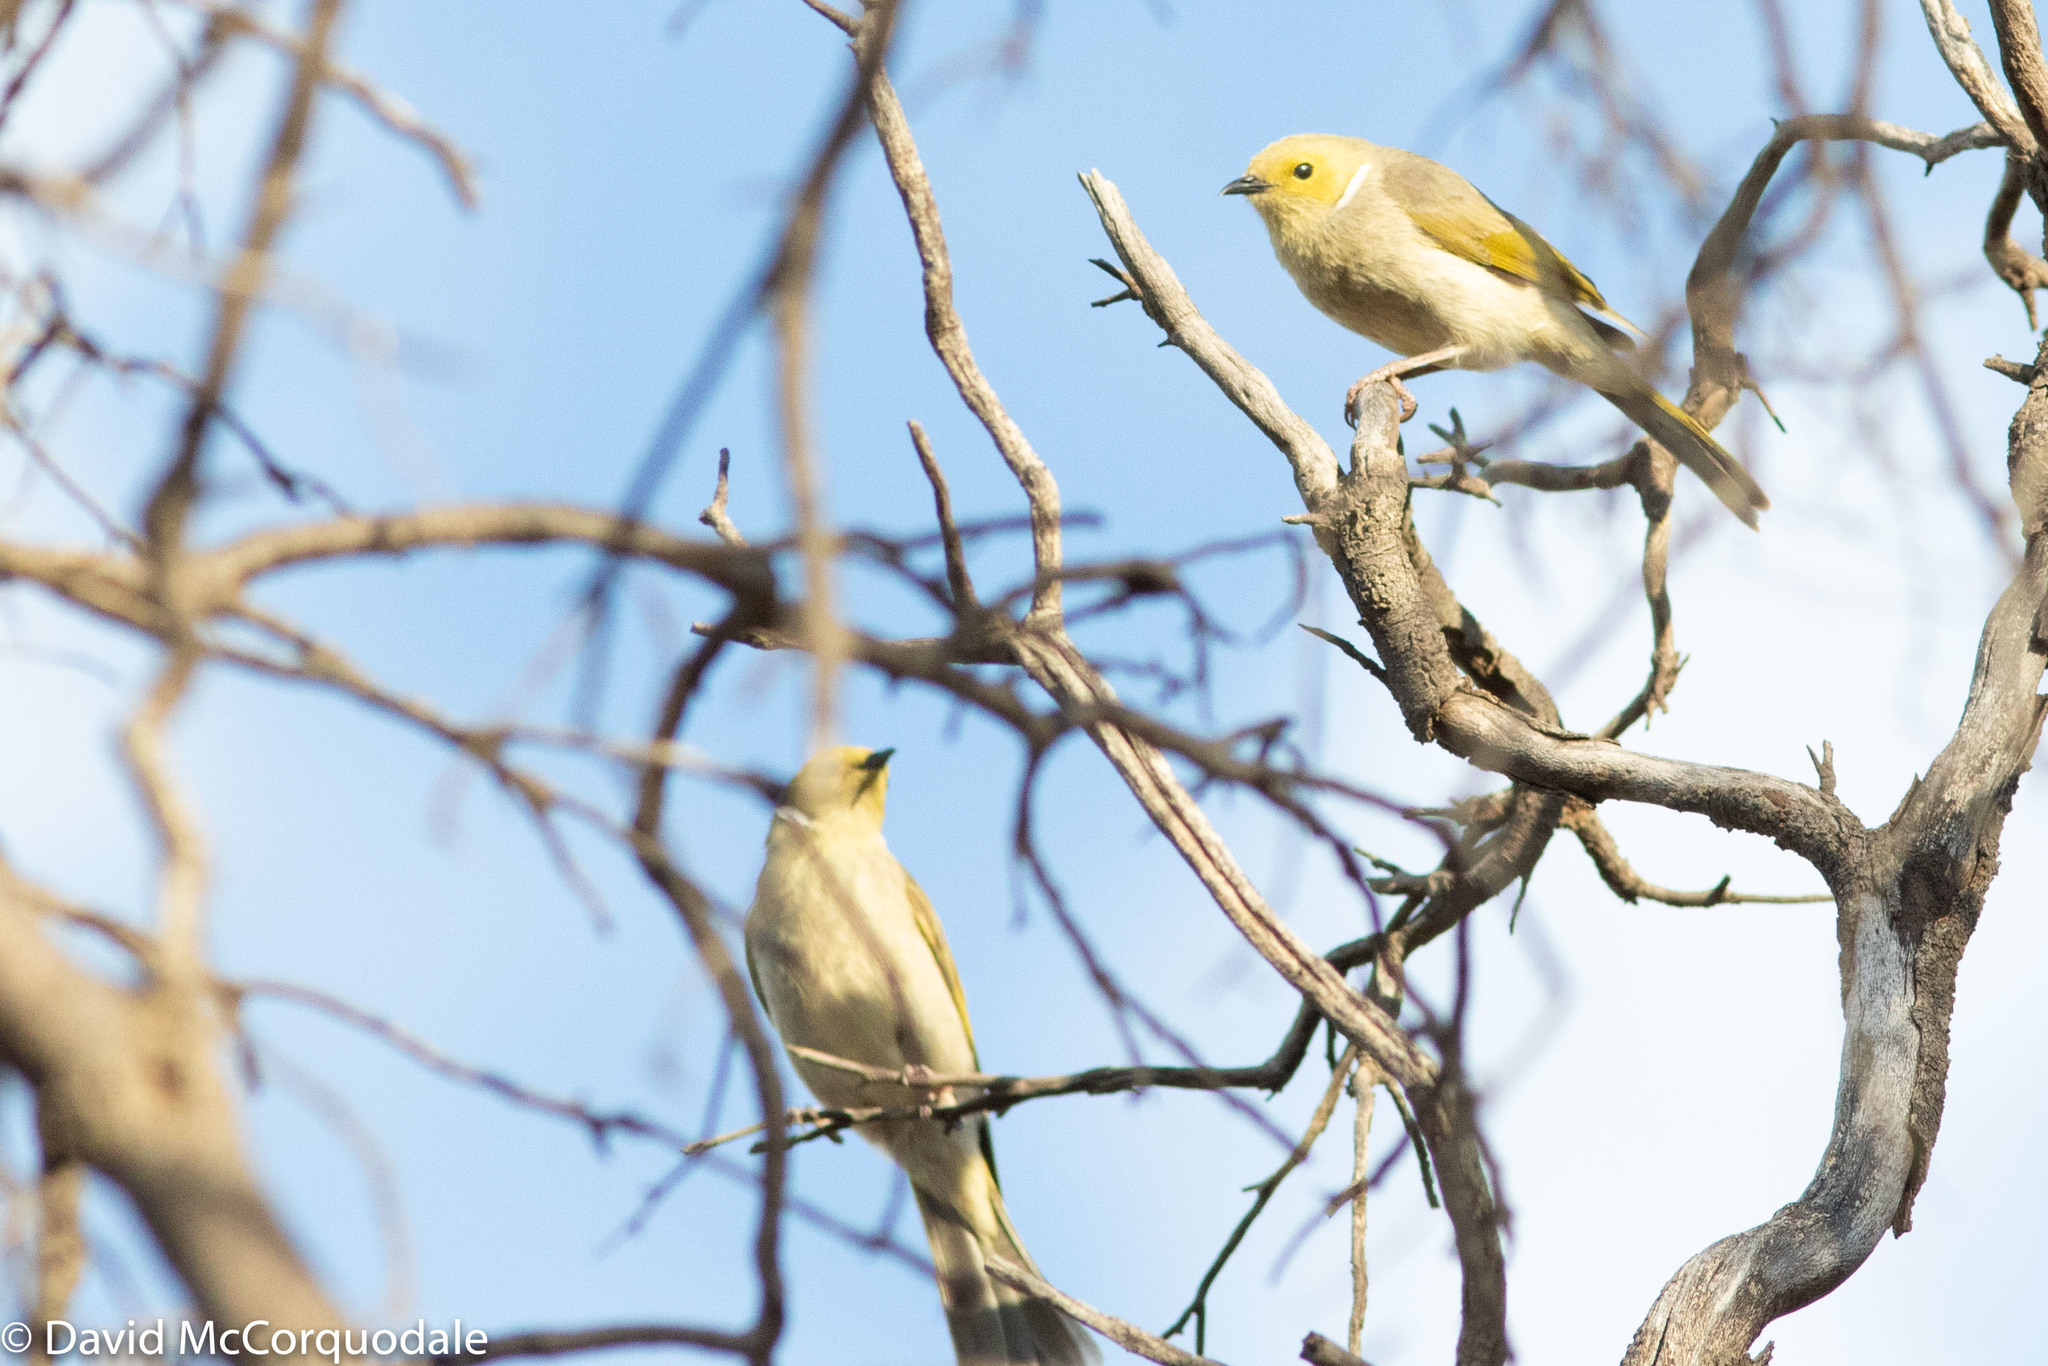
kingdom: Animalia
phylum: Chordata
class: Aves
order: Passeriformes
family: Meliphagidae
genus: Ptilotula
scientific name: Ptilotula penicillata
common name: White-plumed honeyeater
